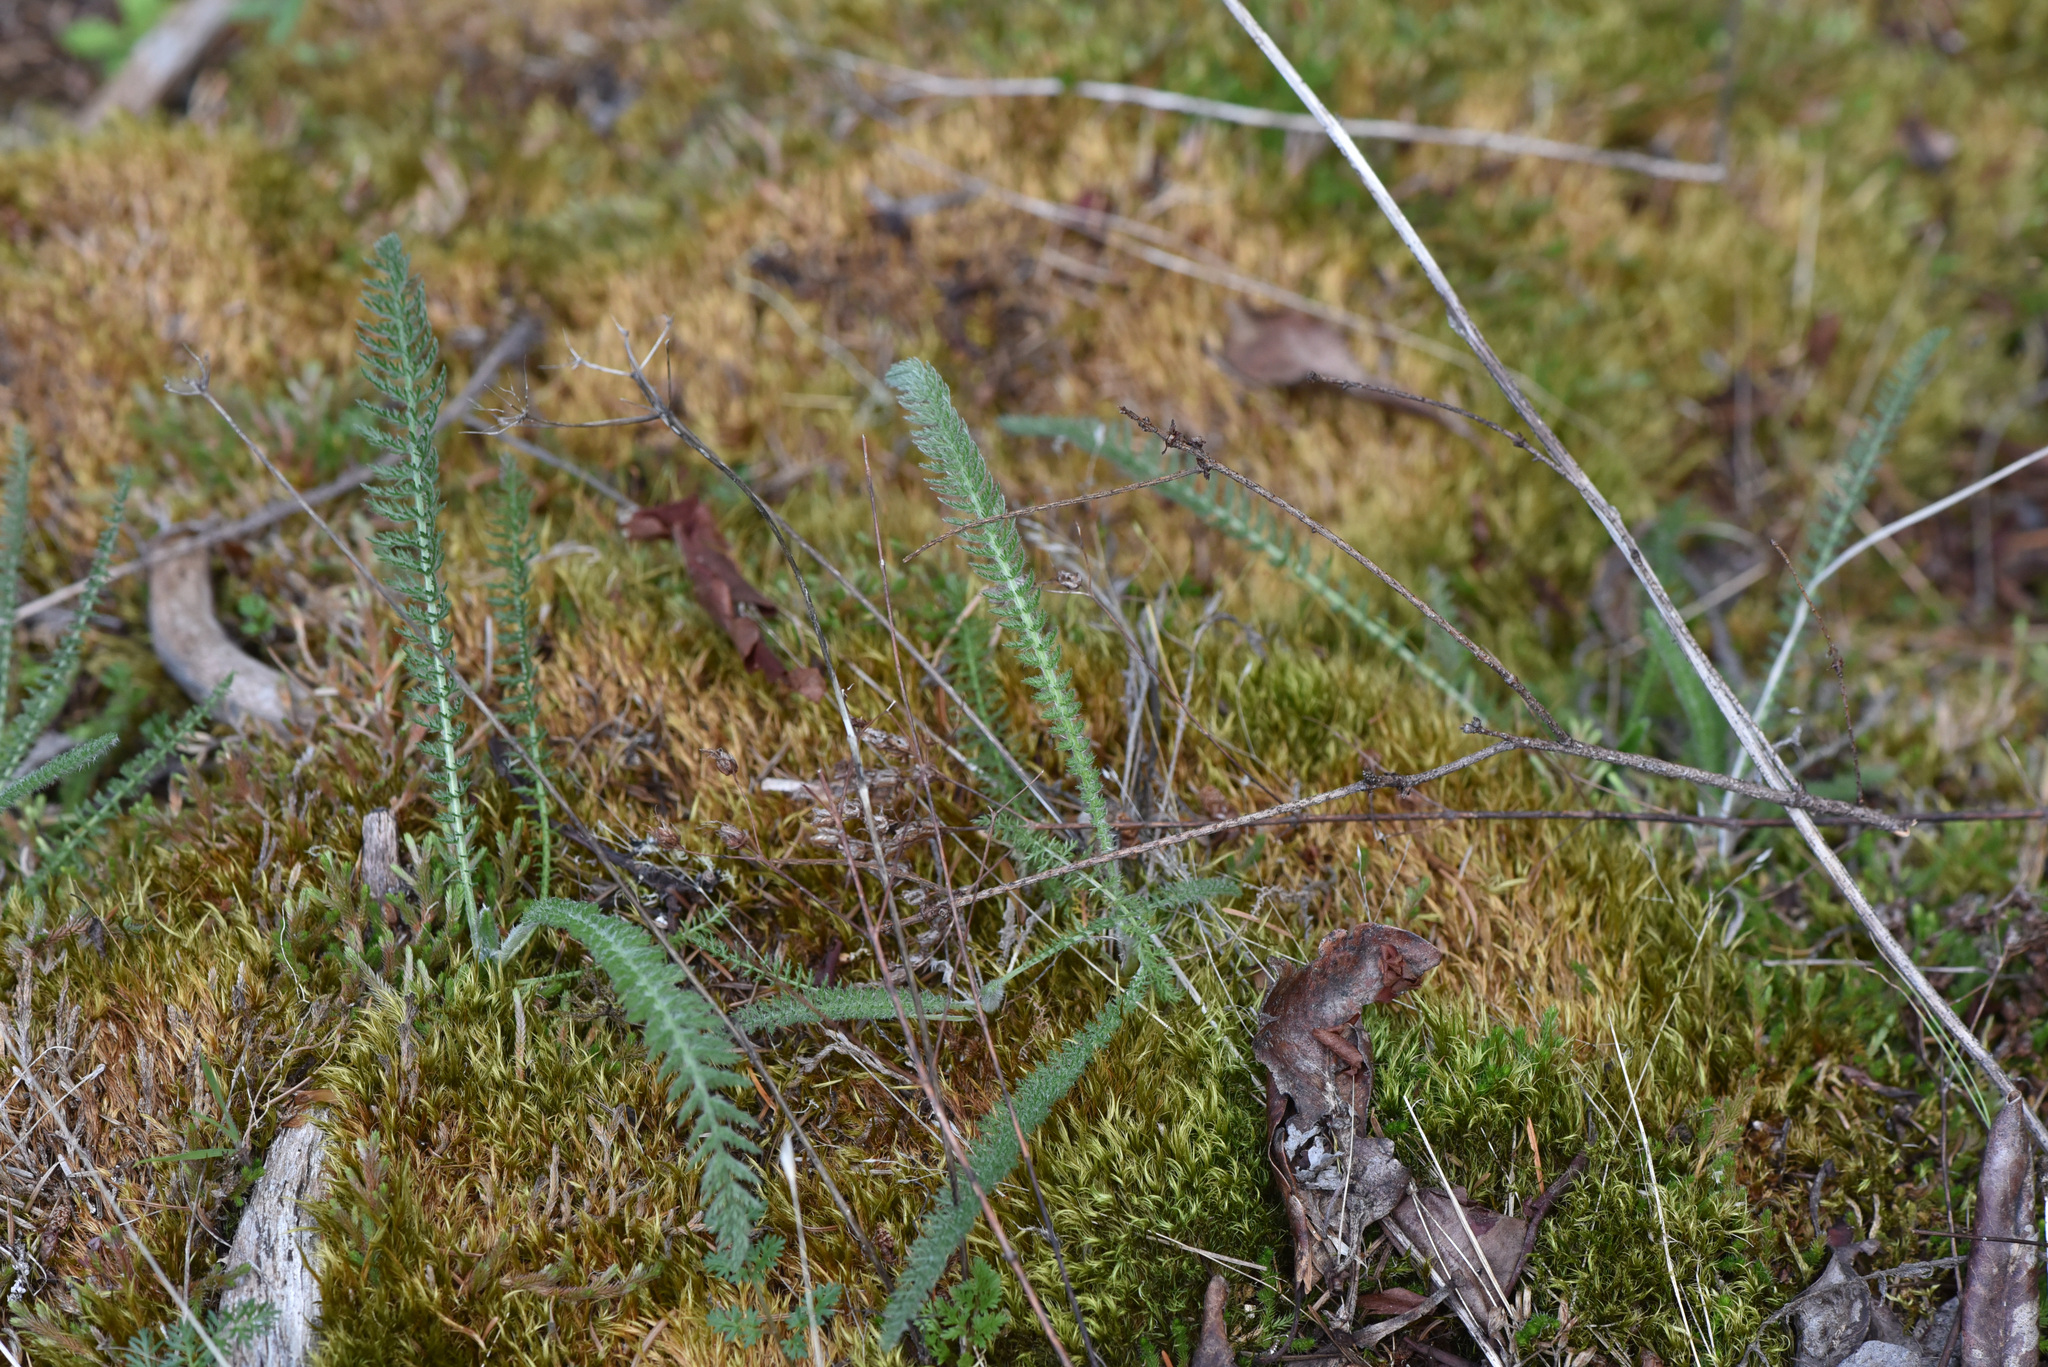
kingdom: Plantae
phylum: Tracheophyta
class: Magnoliopsida
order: Asterales
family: Asteraceae
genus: Achillea
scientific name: Achillea millefolium
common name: Yarrow
